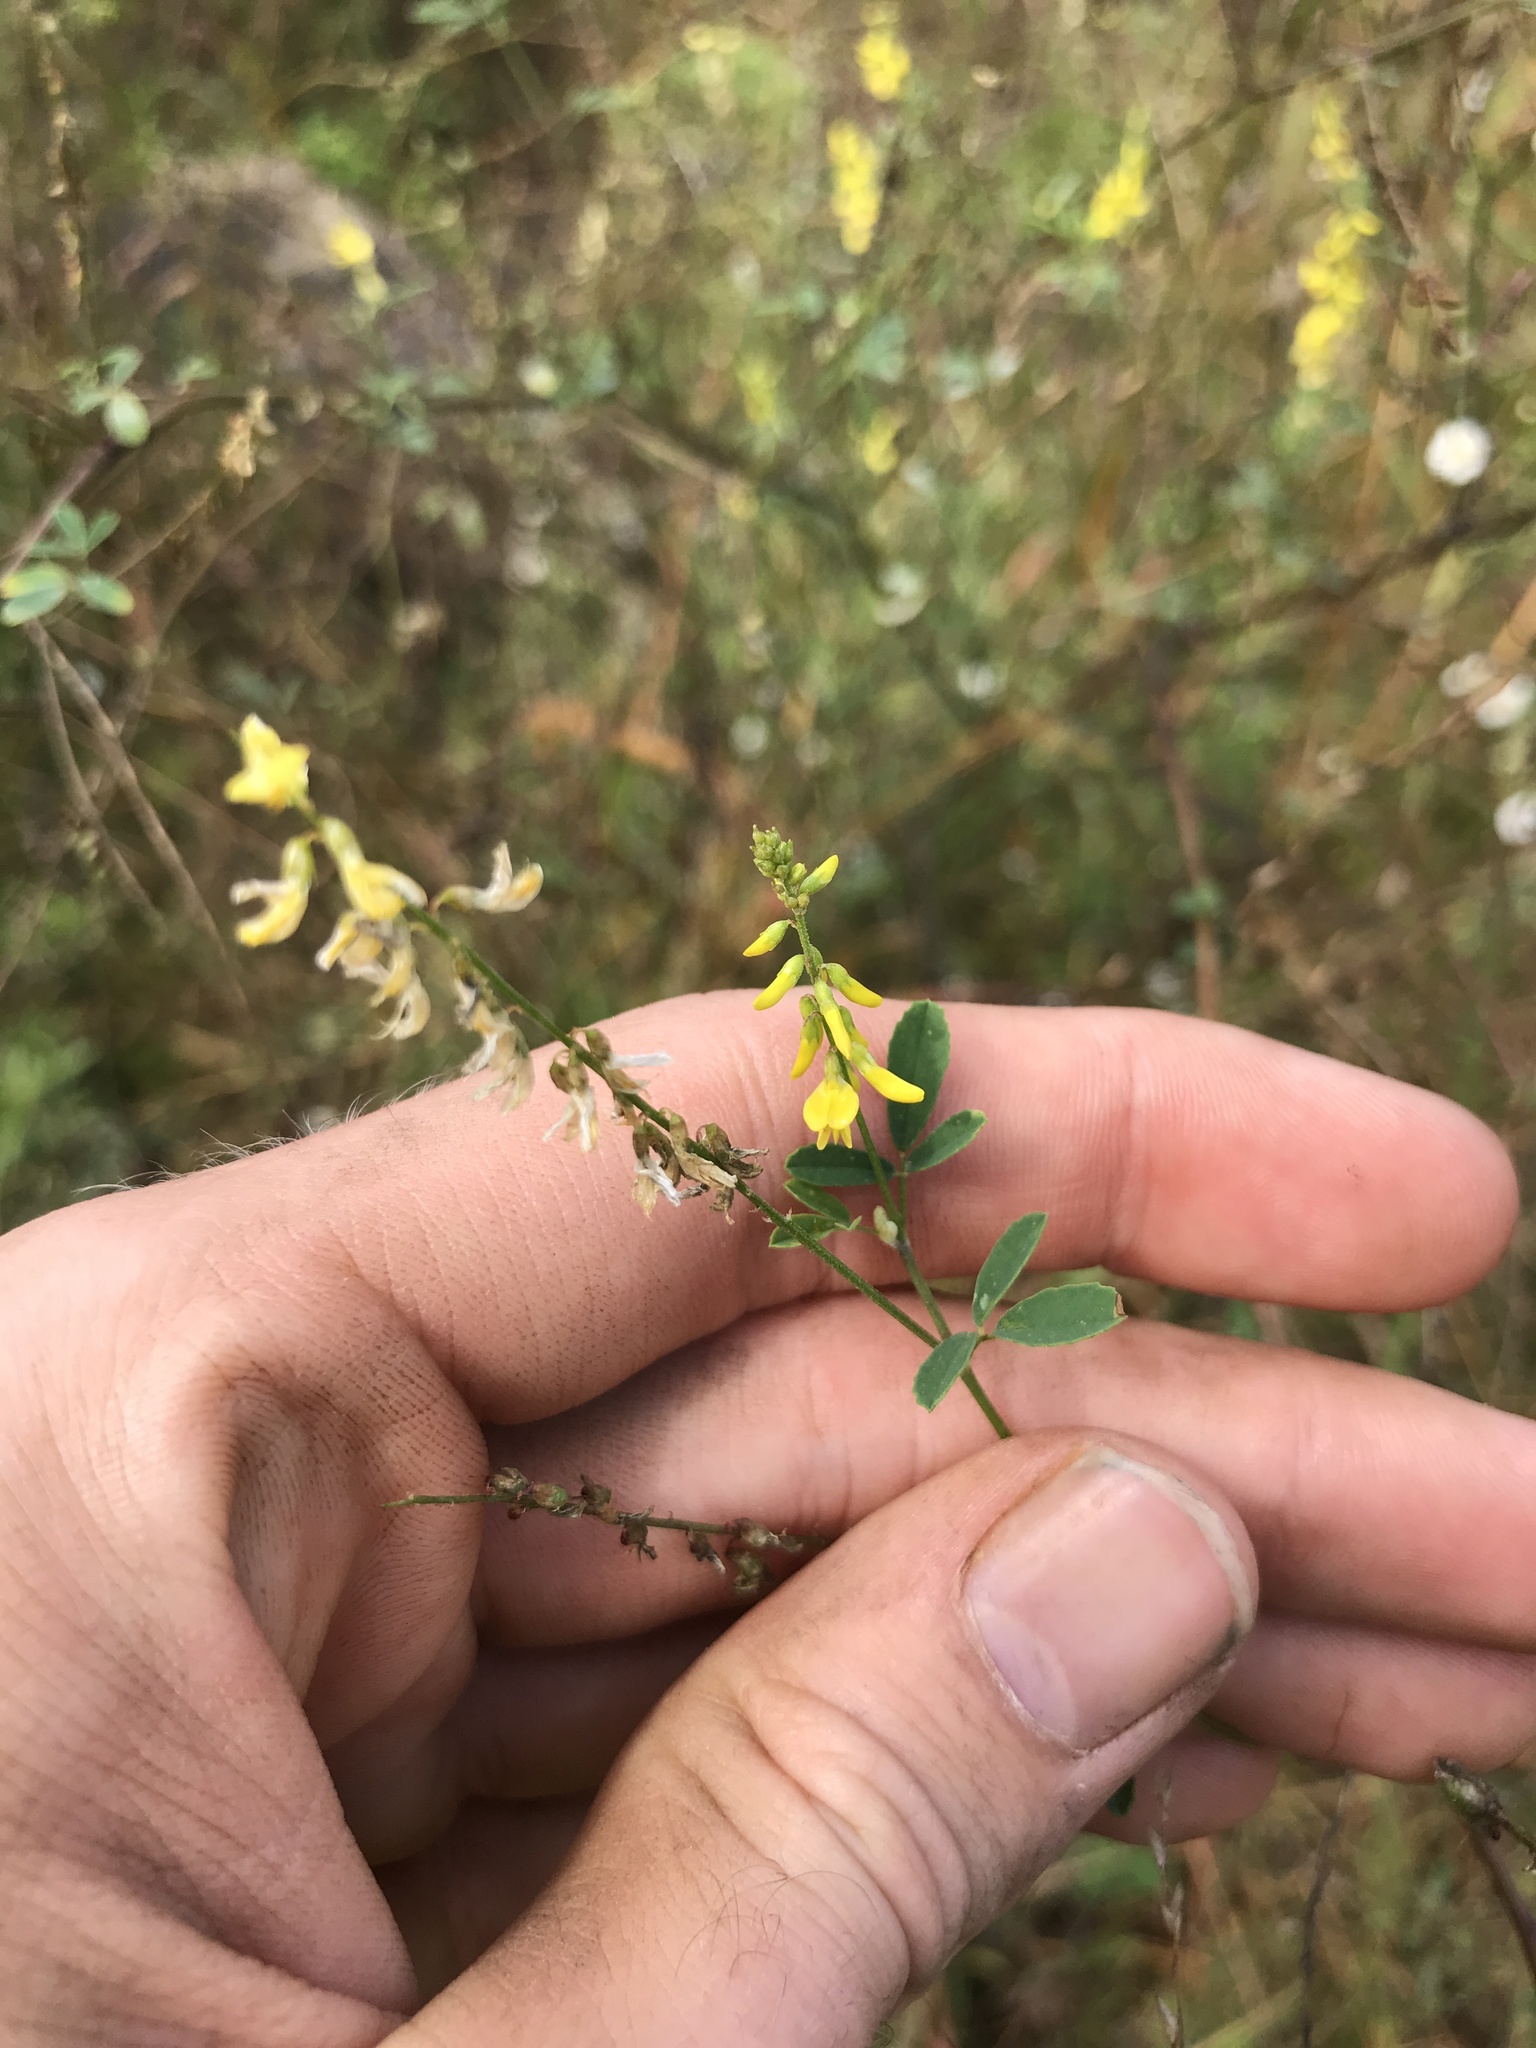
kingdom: Plantae
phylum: Tracheophyta
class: Magnoliopsida
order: Fabales
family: Fabaceae
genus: Melilotus
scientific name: Melilotus officinalis
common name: Sweetclover
